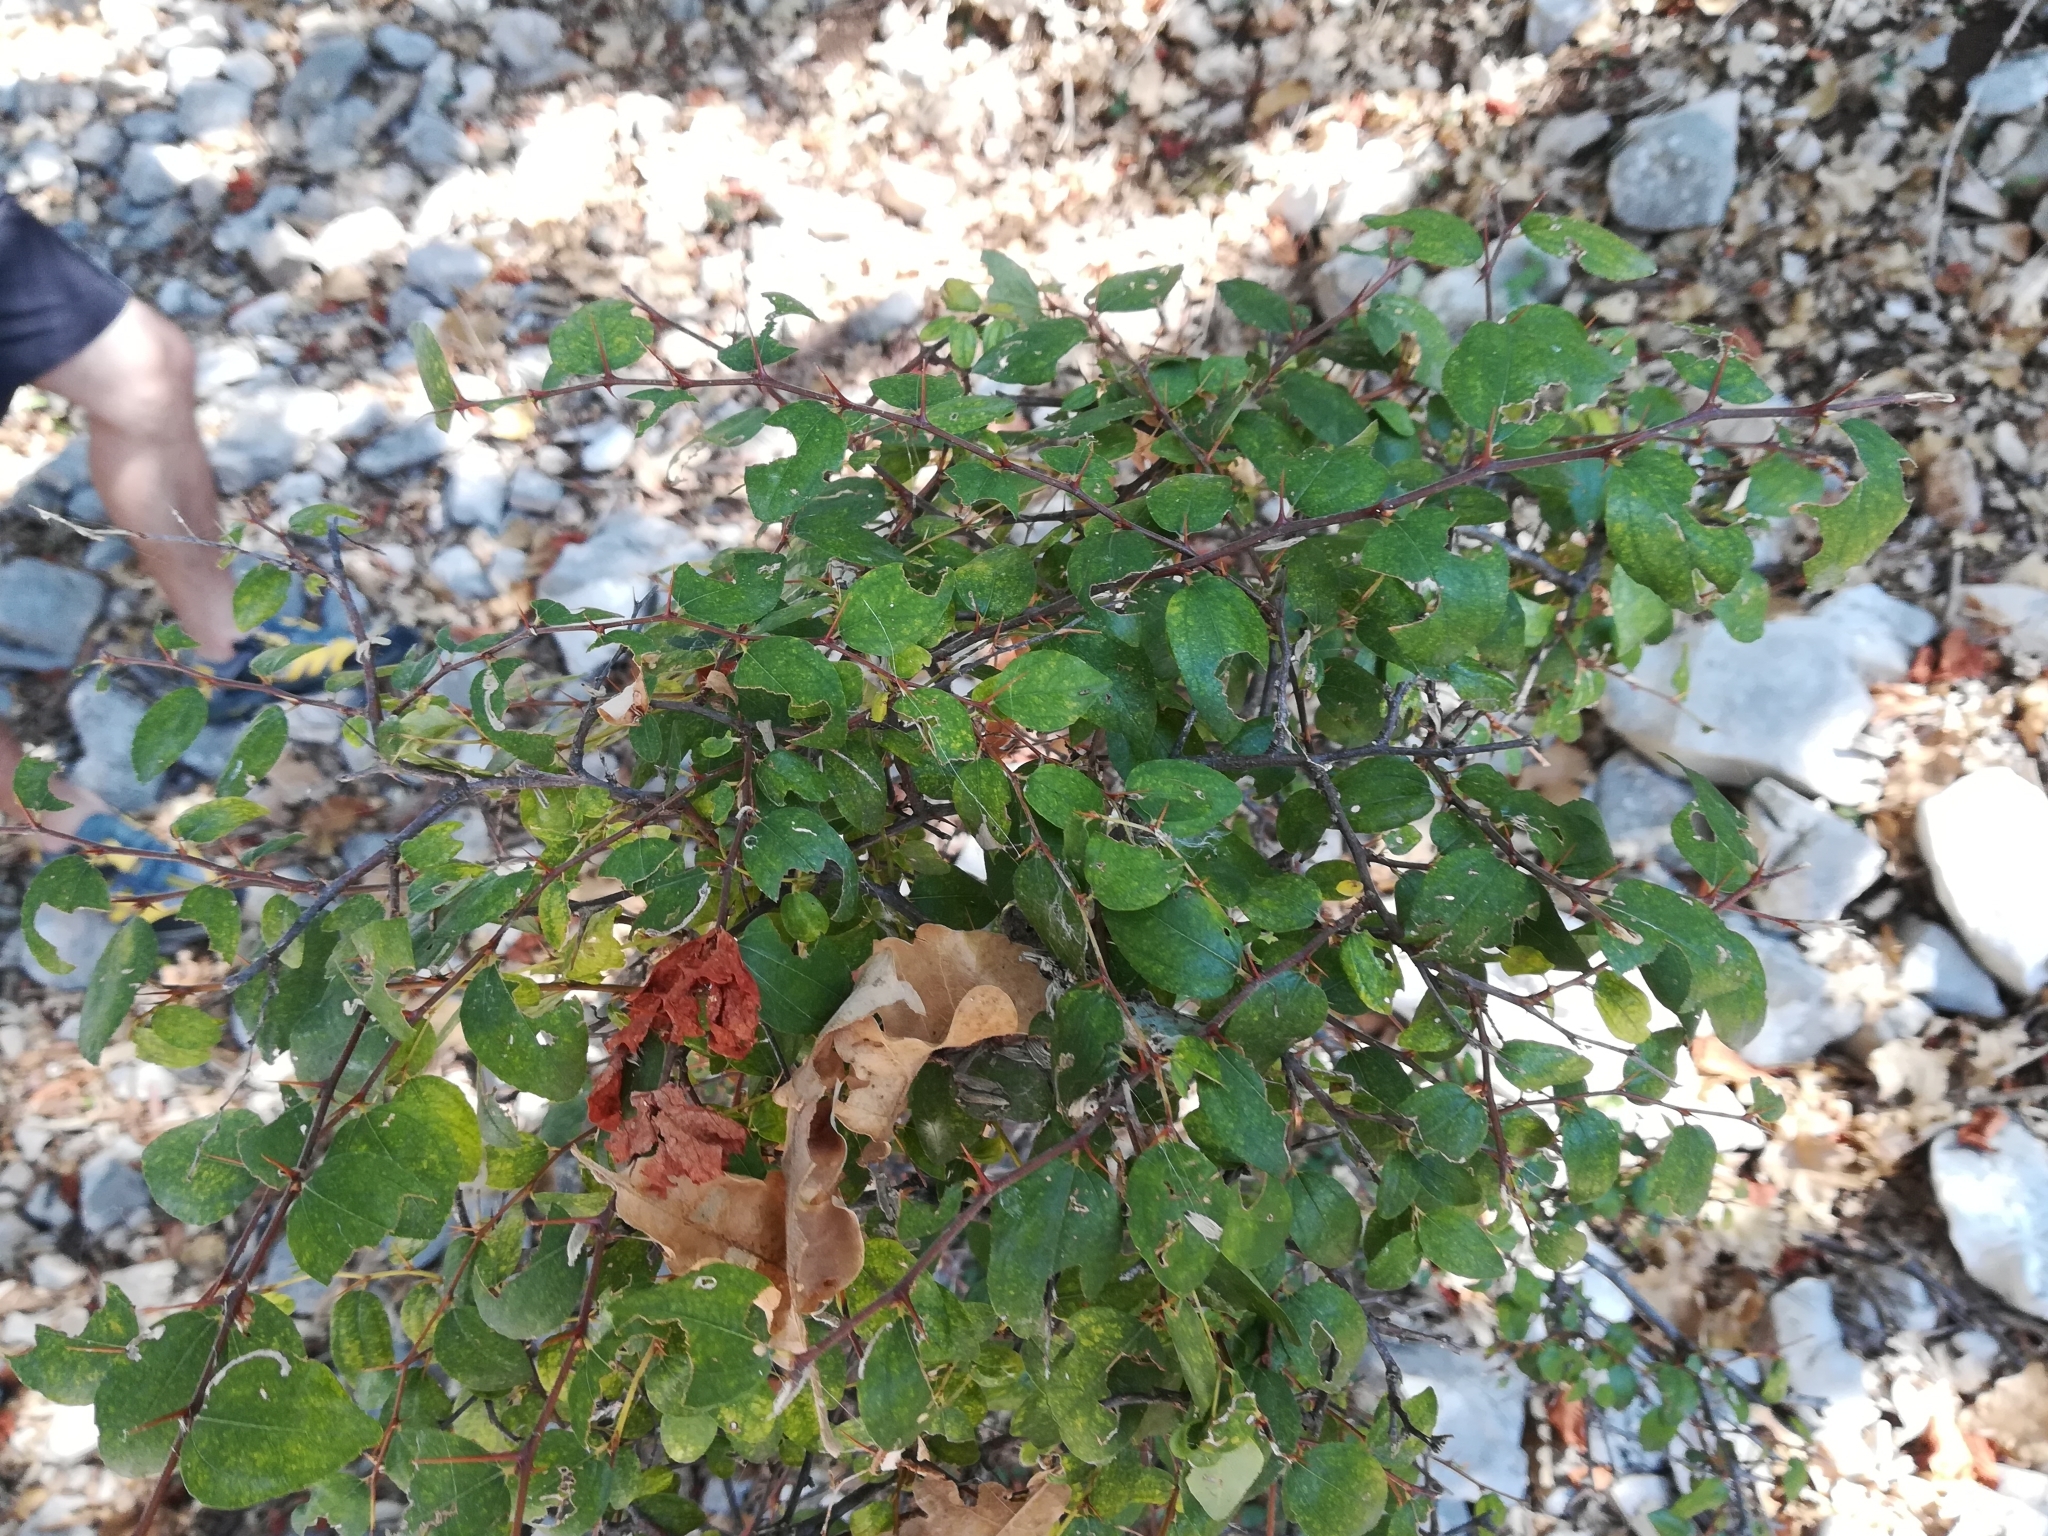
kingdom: Plantae
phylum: Tracheophyta
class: Magnoliopsida
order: Rosales
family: Rhamnaceae
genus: Paliurus
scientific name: Paliurus spina-christi
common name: Jeruselem thorn
